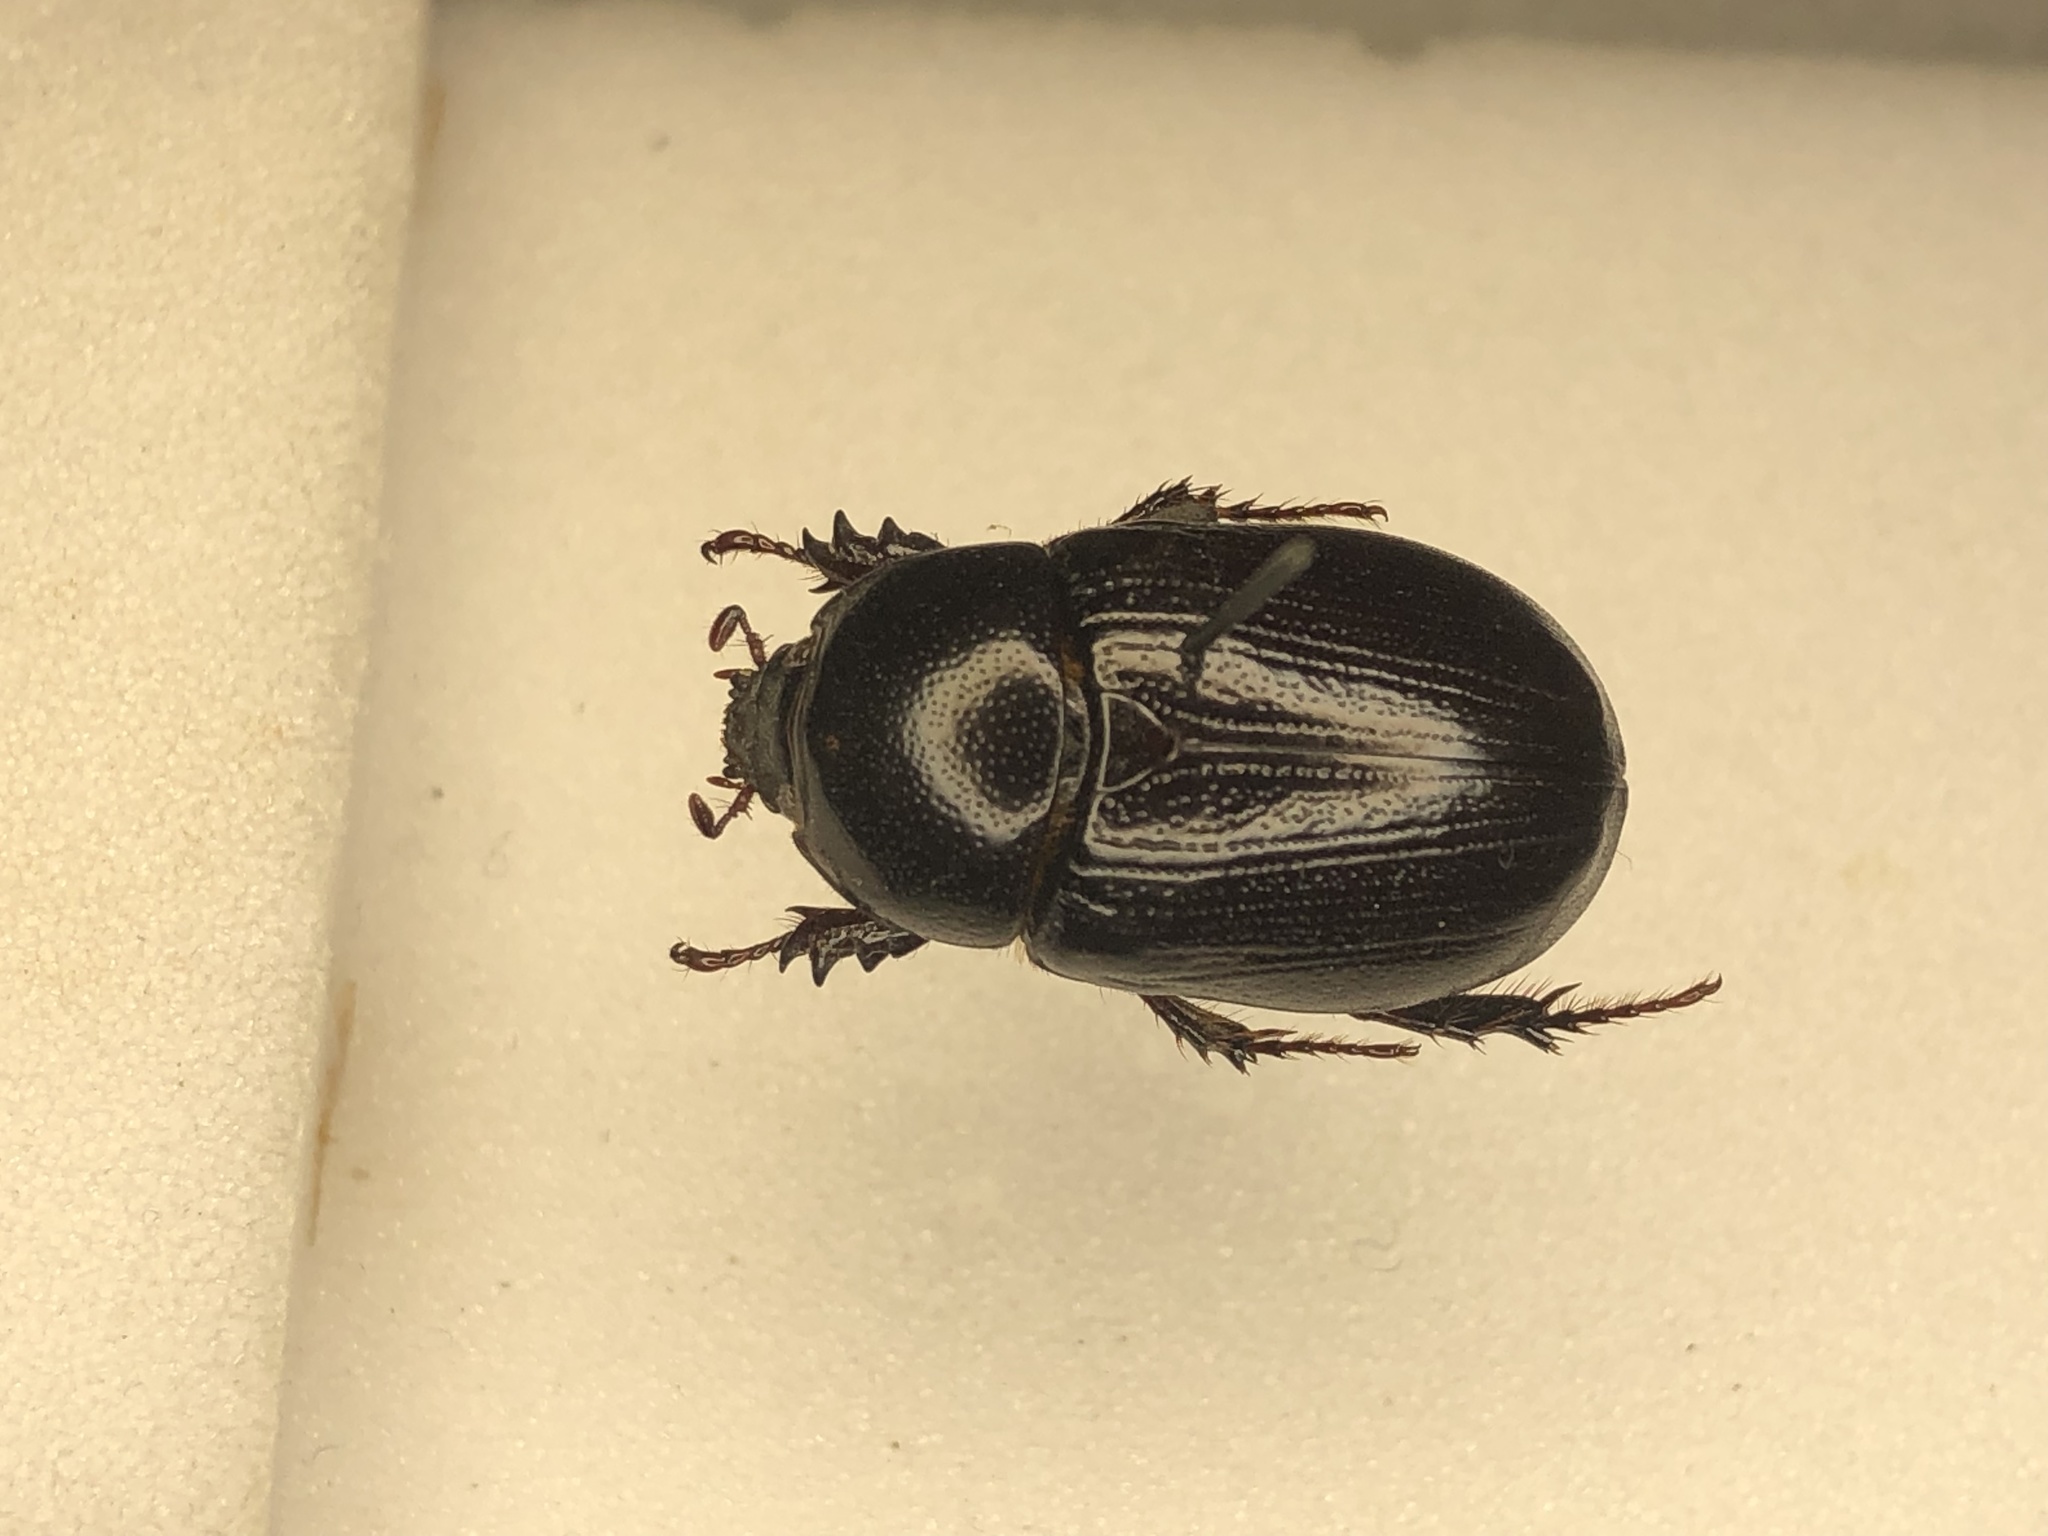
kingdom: Animalia
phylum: Arthropoda
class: Insecta
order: Coleoptera
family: Scarabaeidae
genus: Ligyrus
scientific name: Ligyrus relictus
